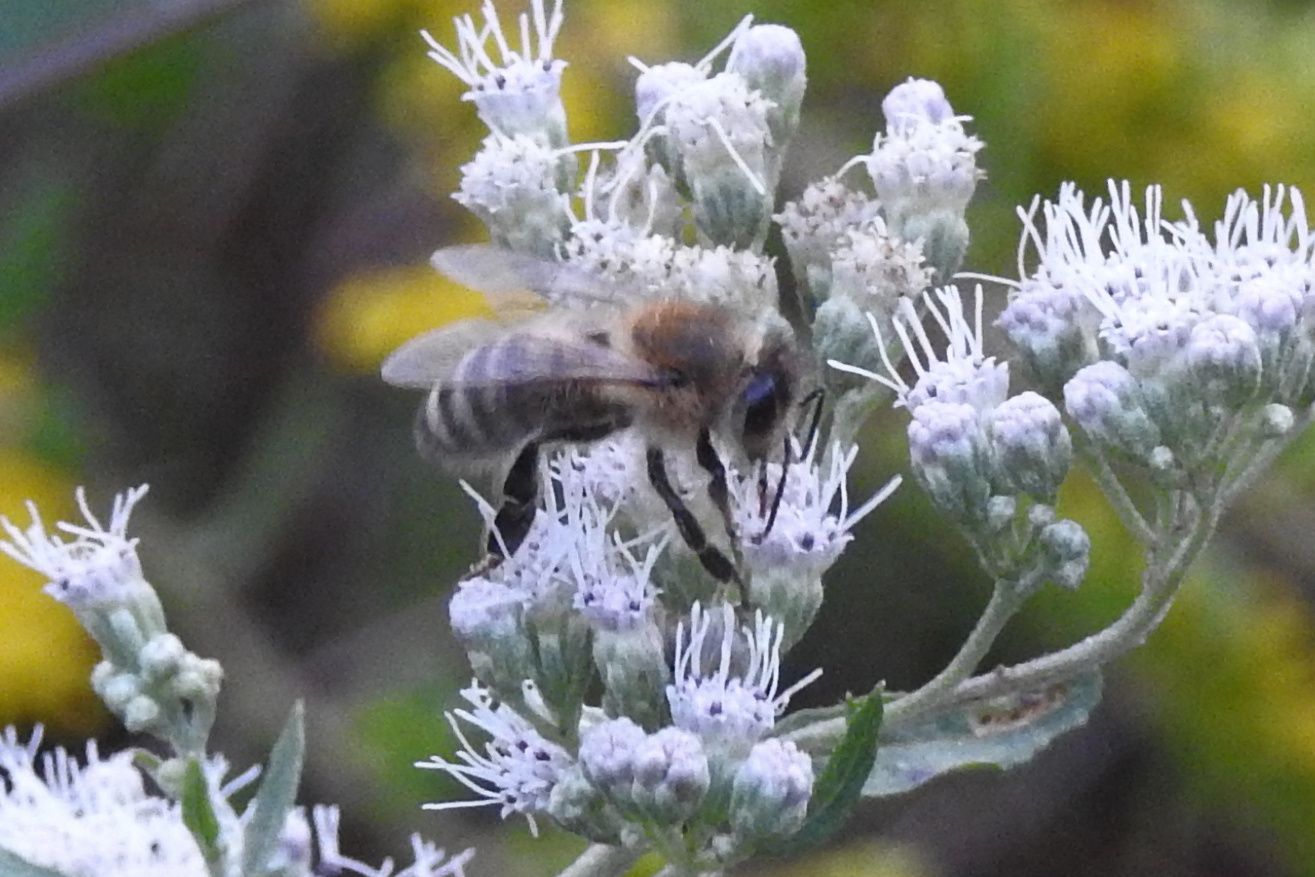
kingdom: Animalia
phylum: Arthropoda
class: Insecta
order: Hymenoptera
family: Apidae
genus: Apis
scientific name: Apis mellifera
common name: Honey bee
